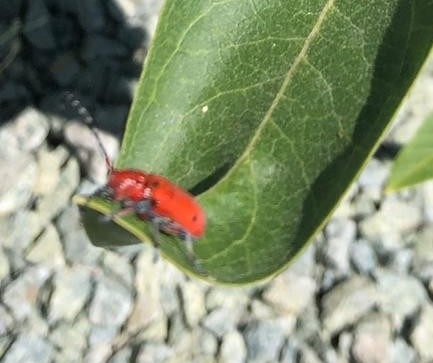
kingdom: Animalia
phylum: Arthropoda
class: Insecta
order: Coleoptera
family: Cerambycidae
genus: Tetraopes
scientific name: Tetraopes femoratus
